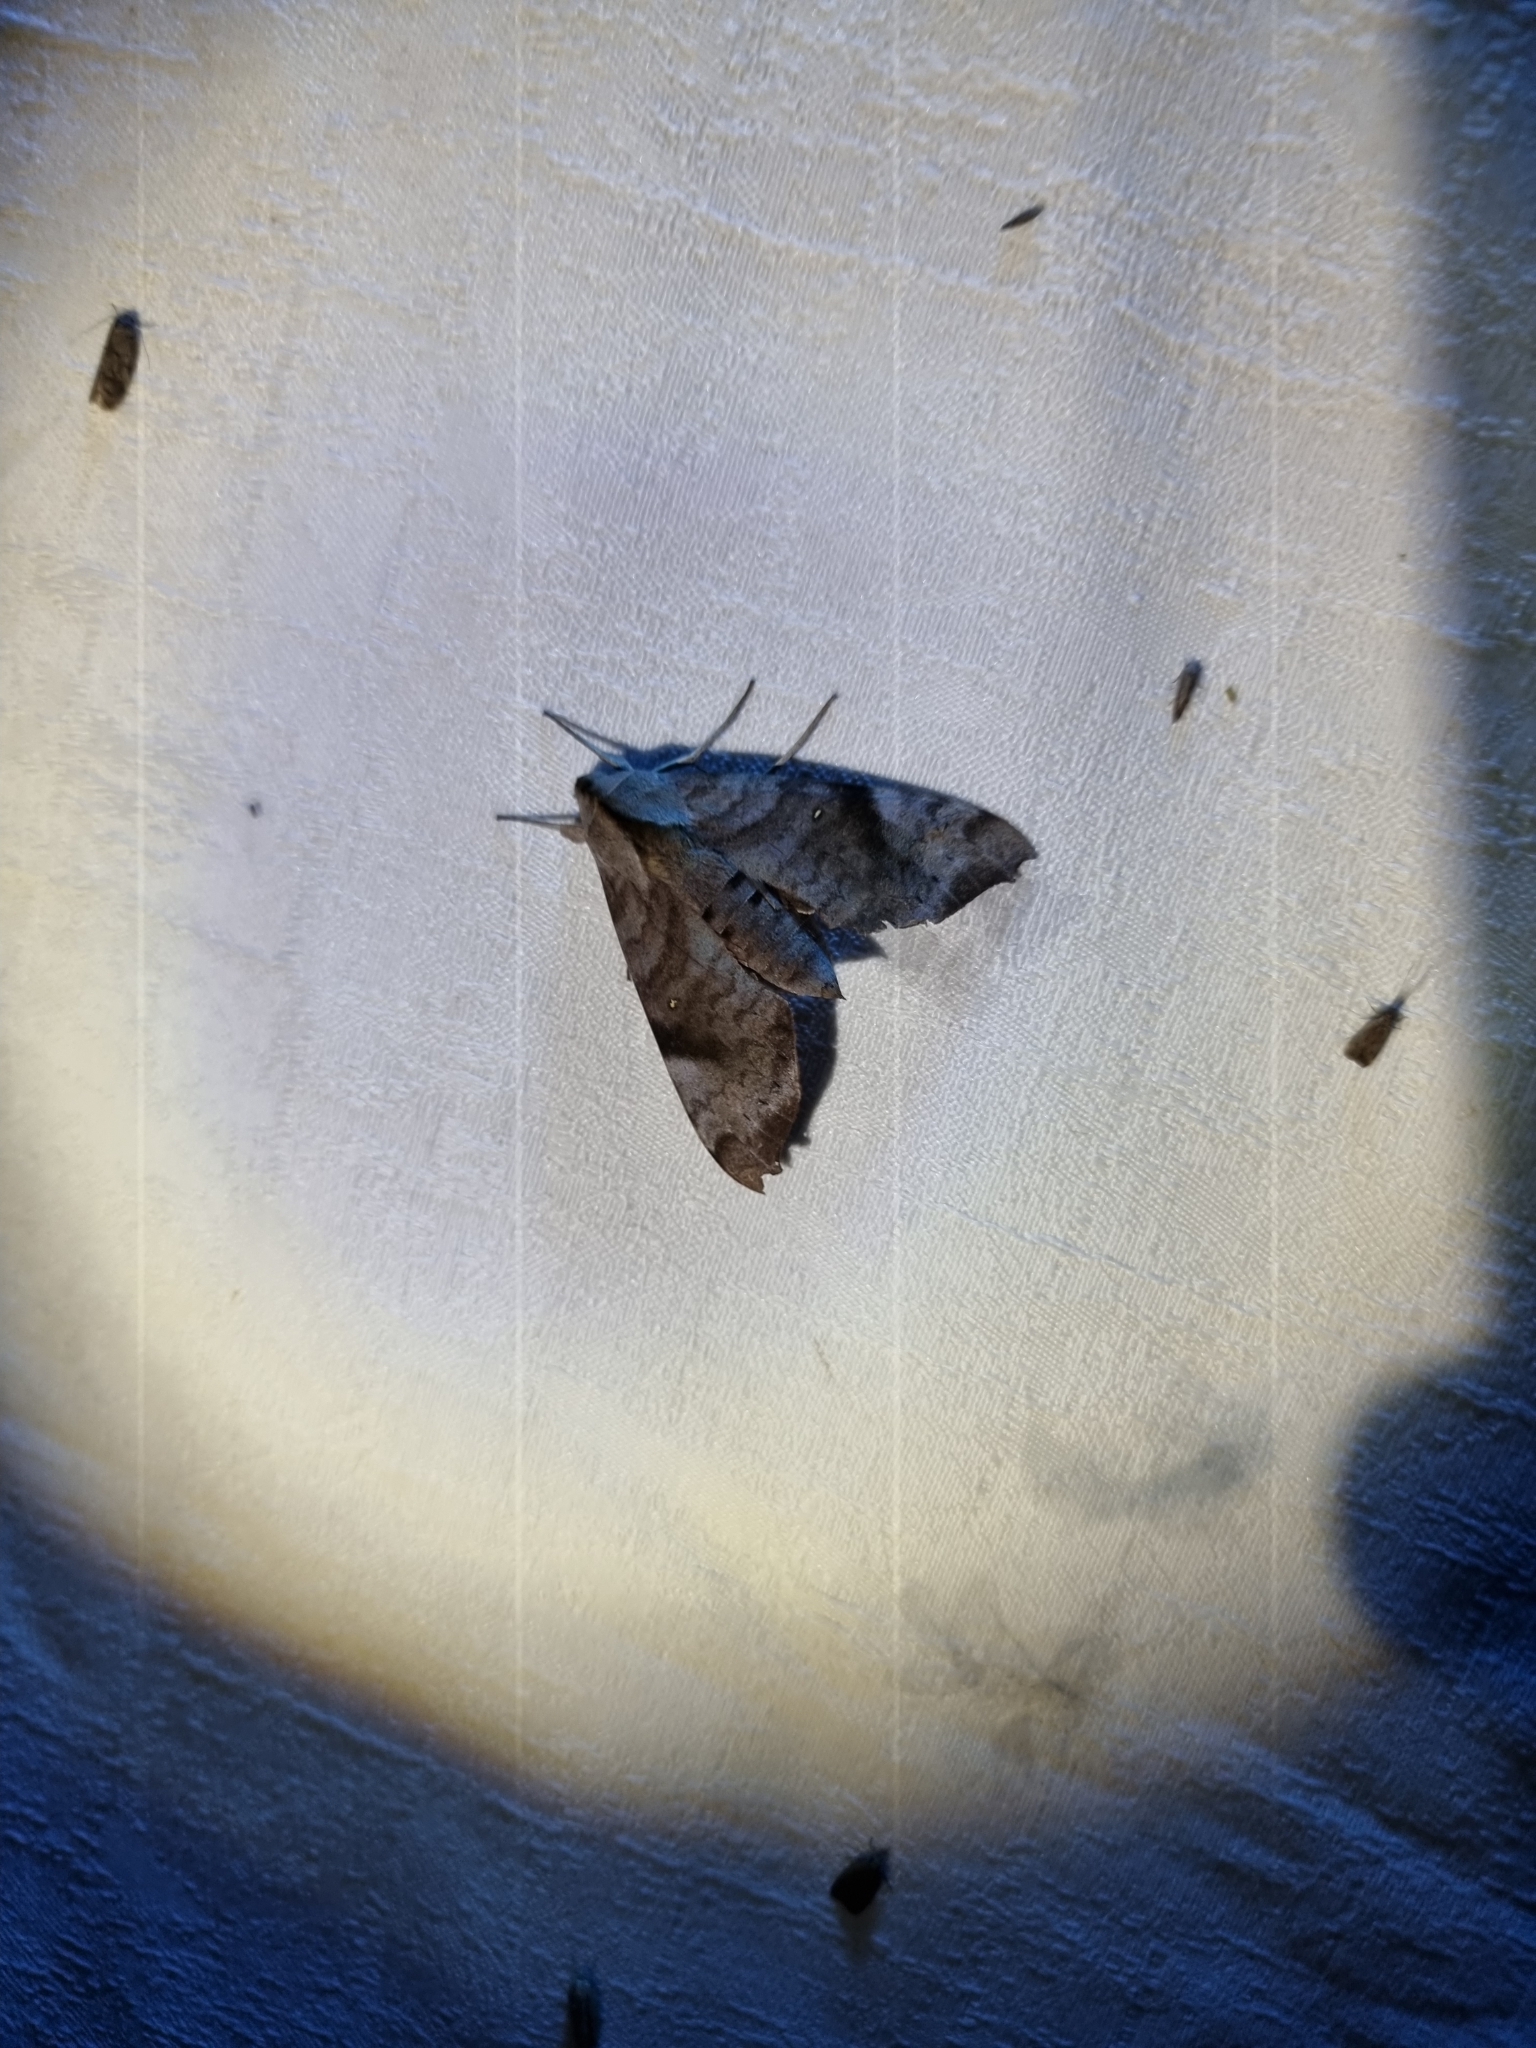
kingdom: Animalia
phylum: Arthropoda
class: Insecta
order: Lepidoptera
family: Sphingidae
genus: Acosmeryx
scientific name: Acosmeryx miskini
